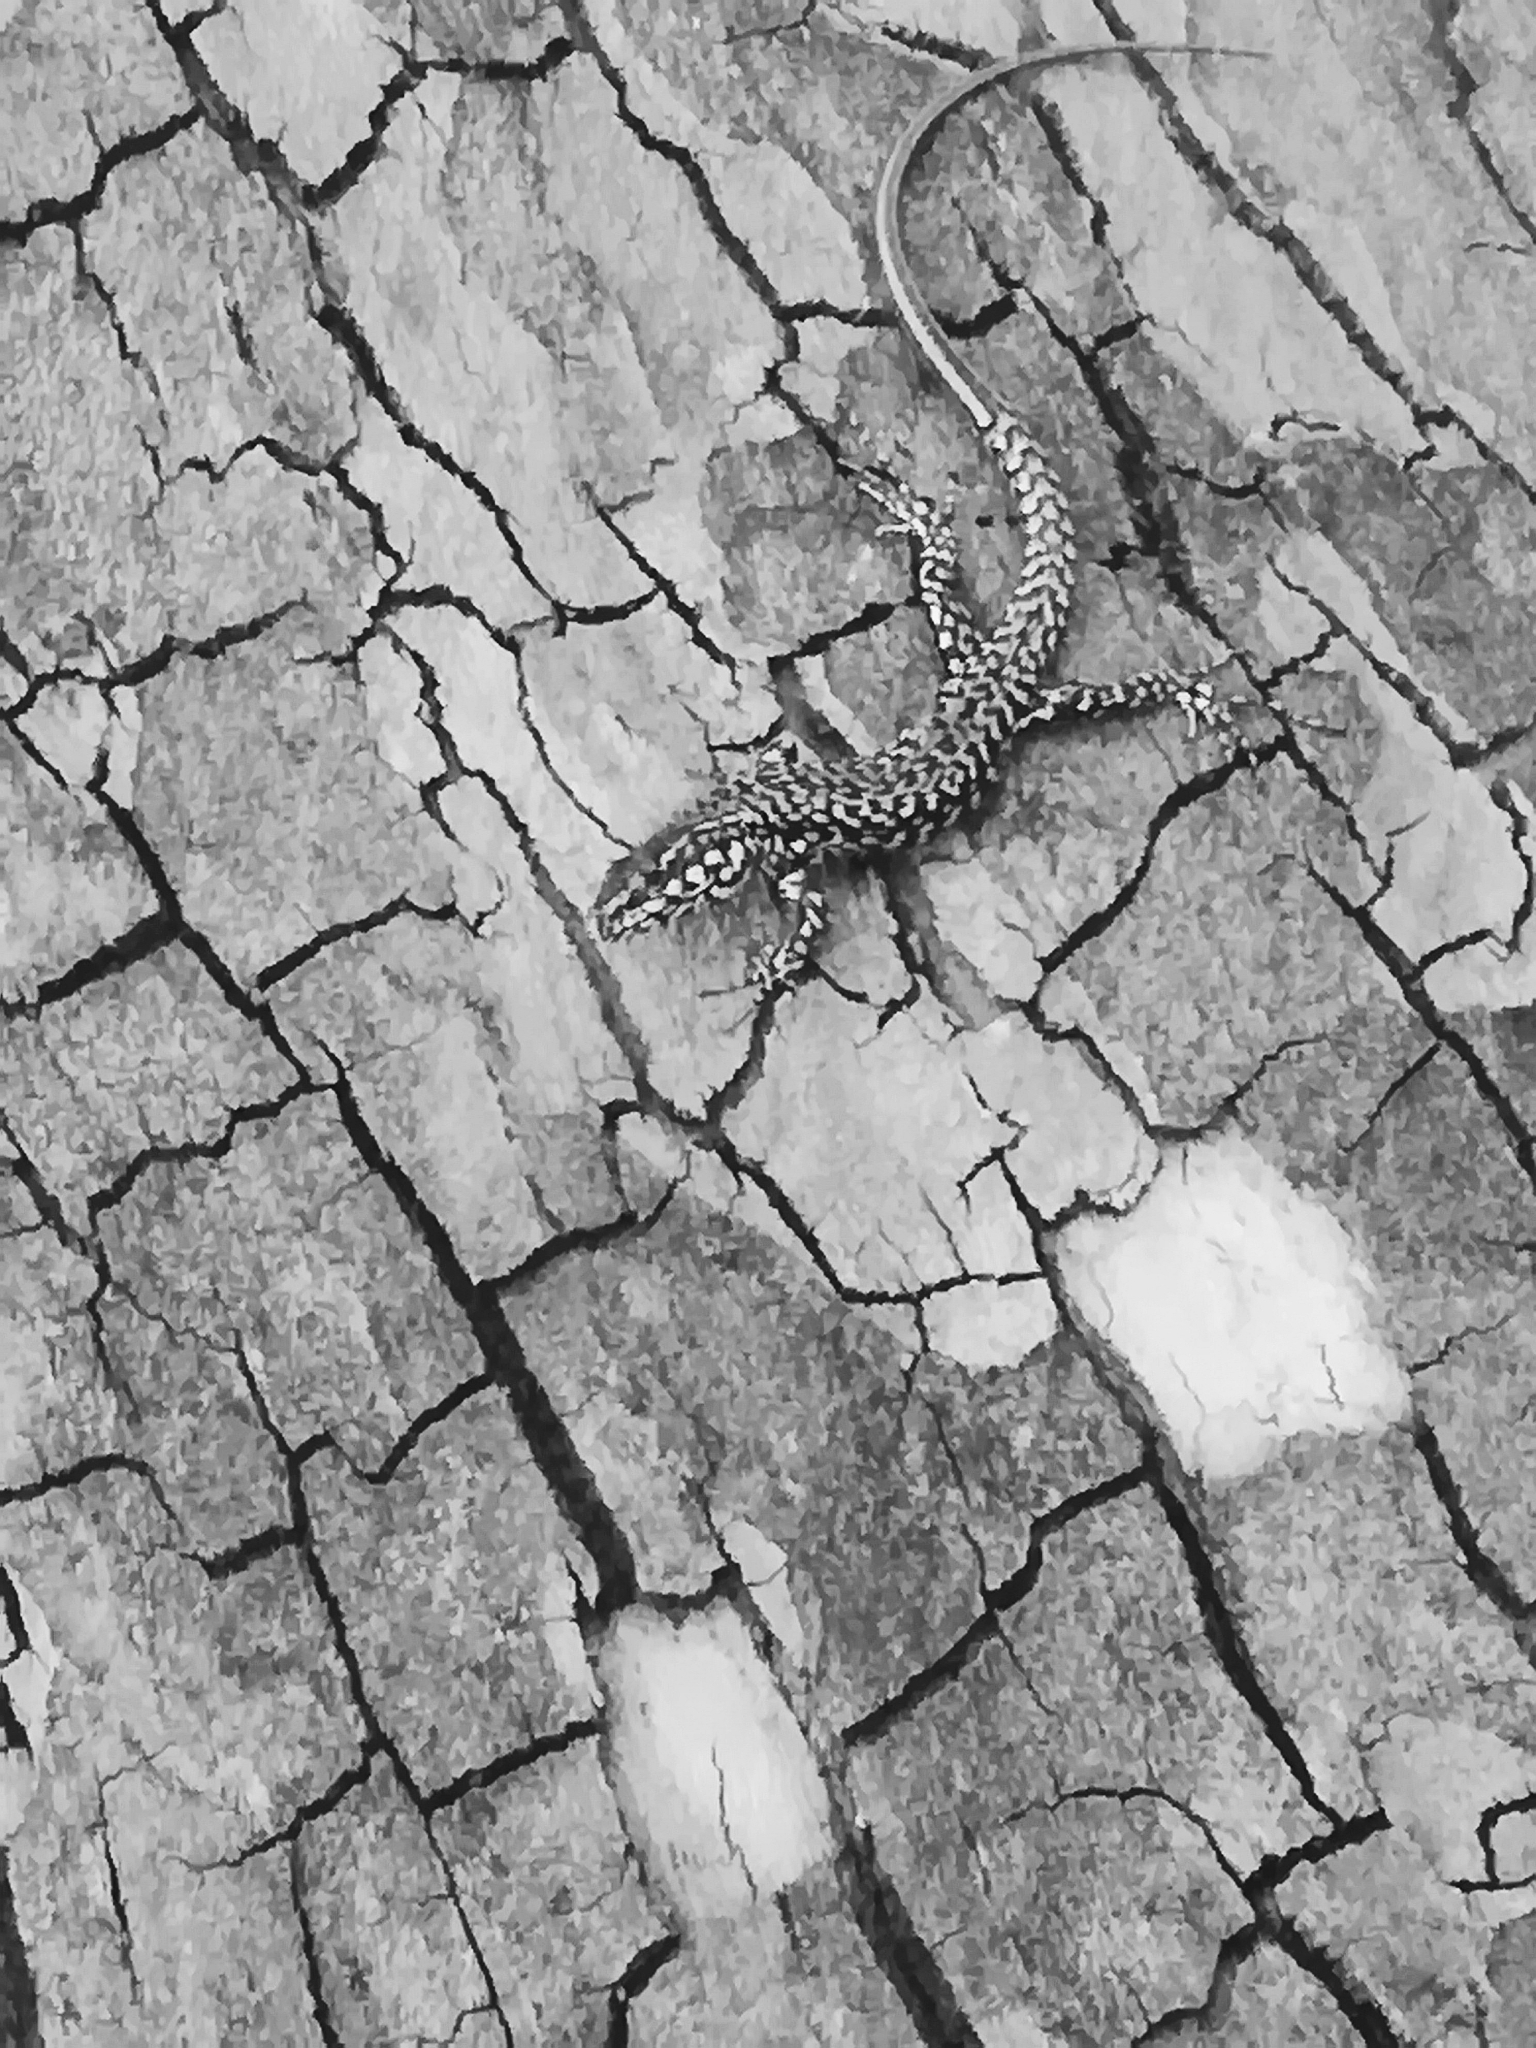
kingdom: Animalia
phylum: Chordata
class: Squamata
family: Lacertidae
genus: Podarcis
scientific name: Podarcis muralis
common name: Common wall lizard
